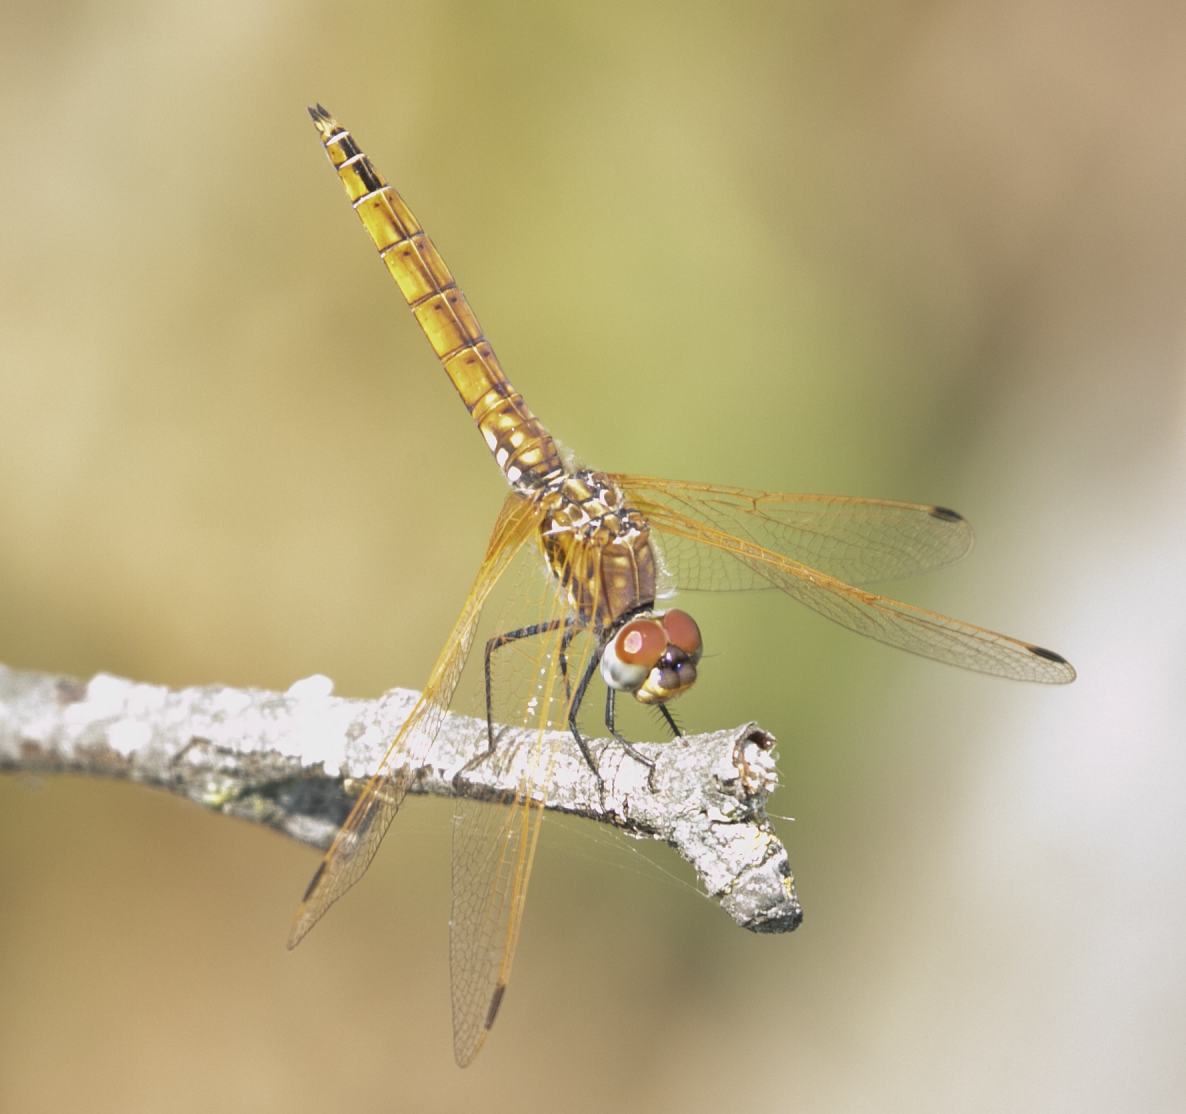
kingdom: Animalia
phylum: Arthropoda
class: Insecta
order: Odonata
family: Libellulidae
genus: Trithemis
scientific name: Trithemis annulata
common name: Violet dropwing
